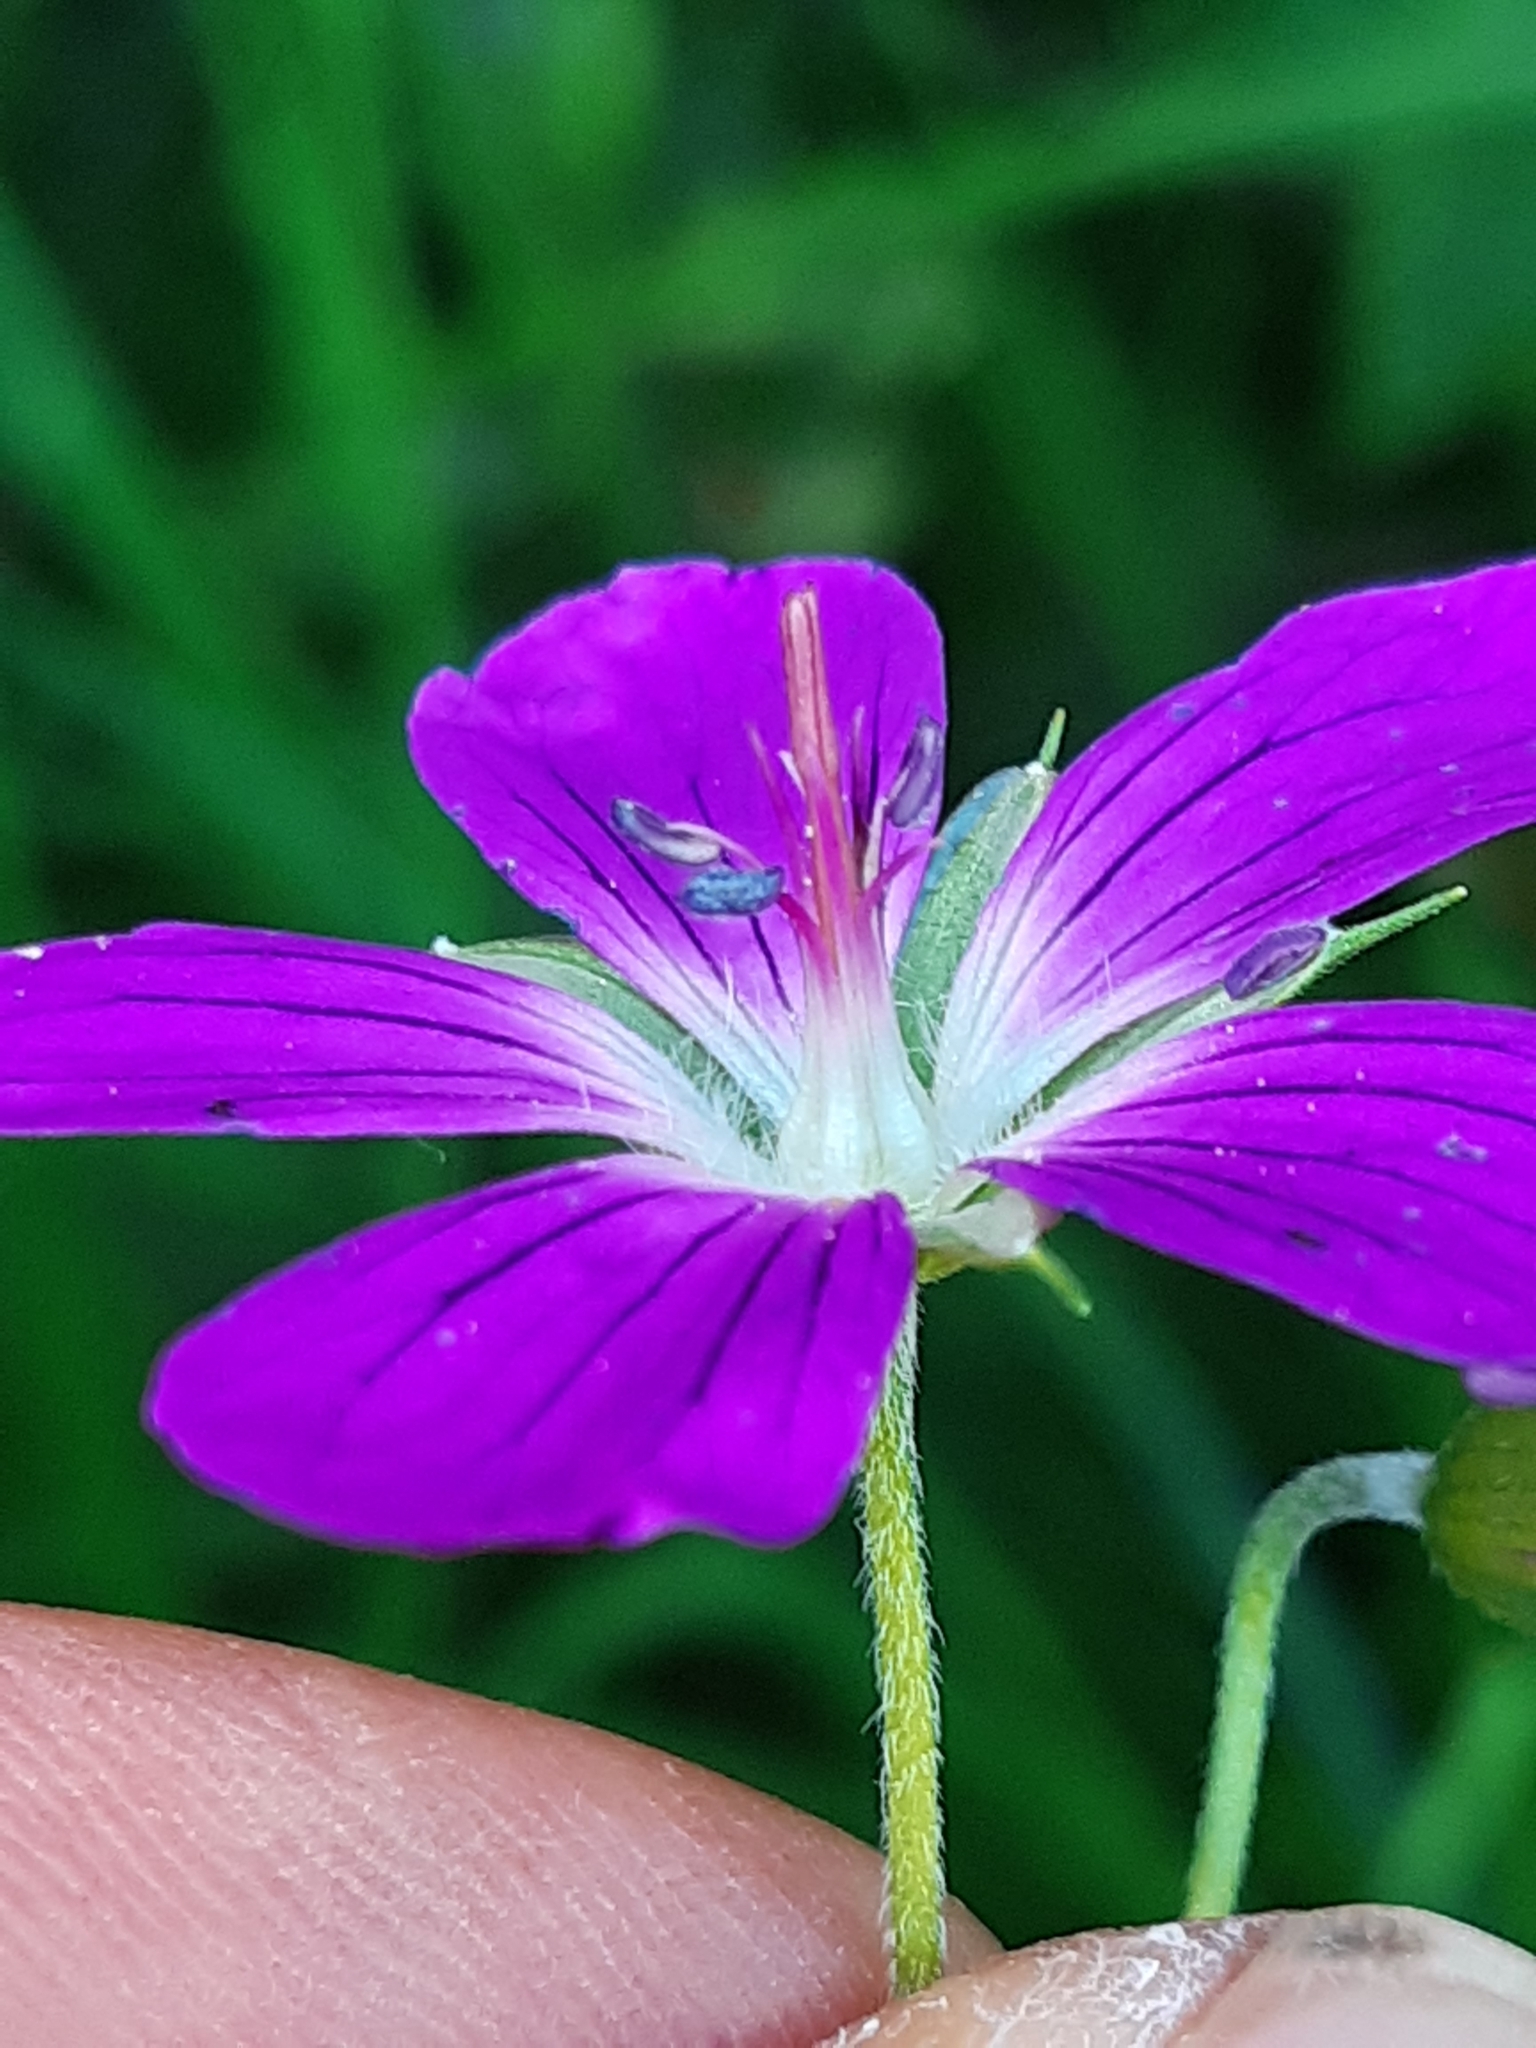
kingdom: Plantae
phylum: Tracheophyta
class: Magnoliopsida
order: Geraniales
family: Geraniaceae
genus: Geranium
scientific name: Geranium palustre
